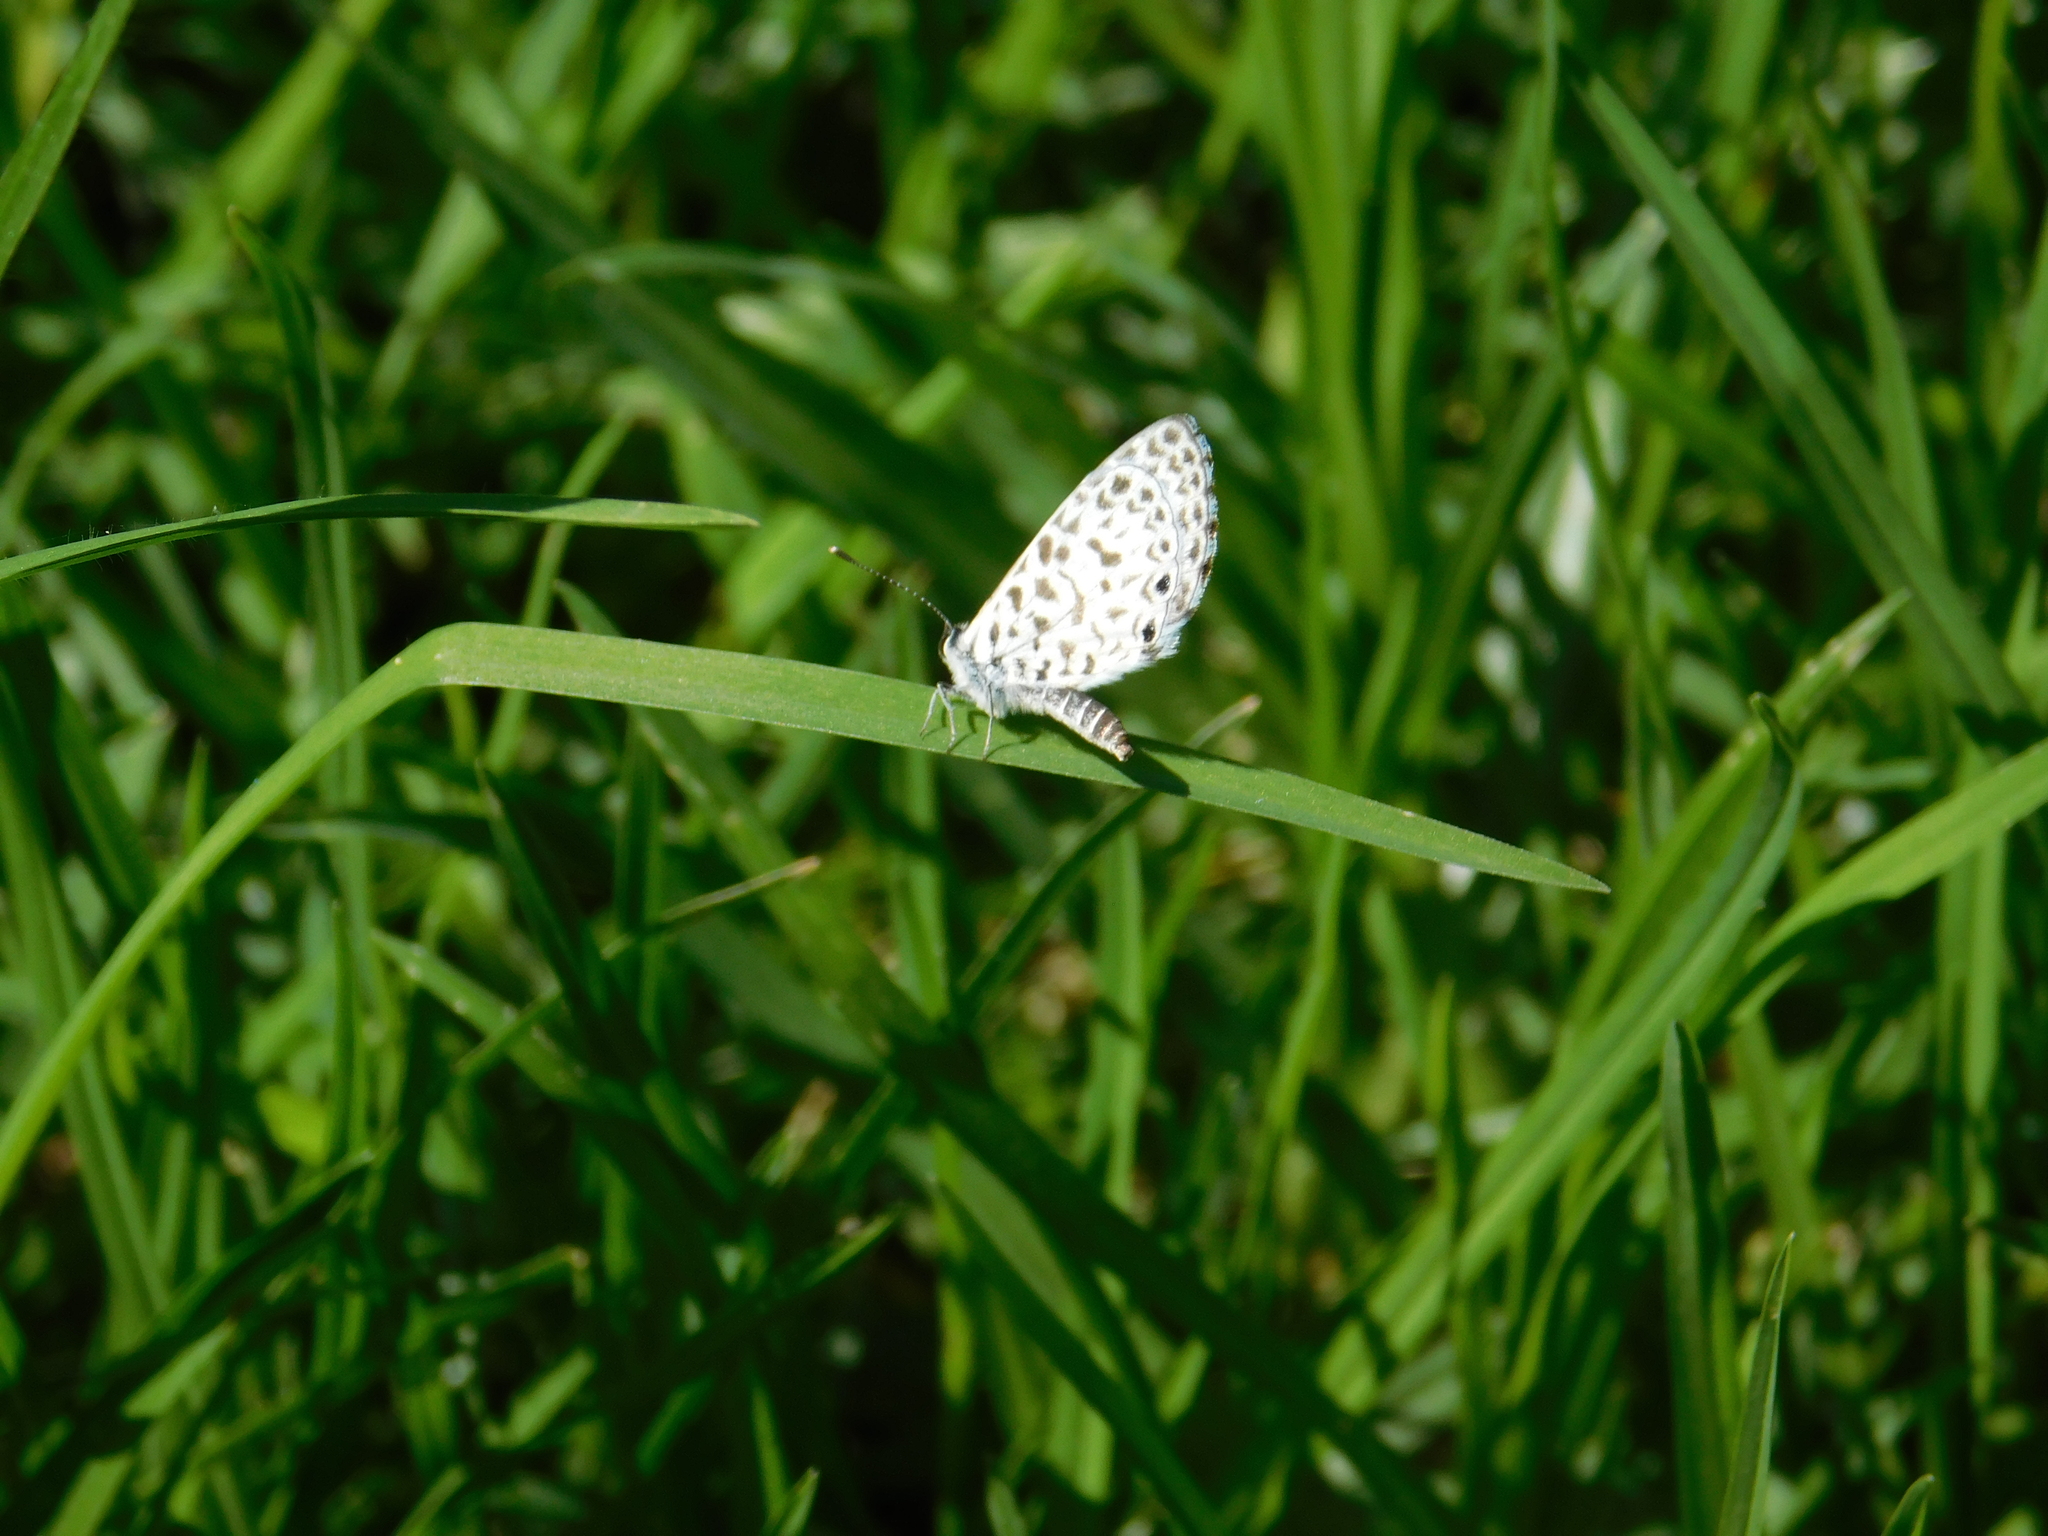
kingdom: Animalia
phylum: Arthropoda
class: Insecta
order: Lepidoptera
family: Lycaenidae
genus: Leptotes
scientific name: Leptotes cassius
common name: Cassius blue
